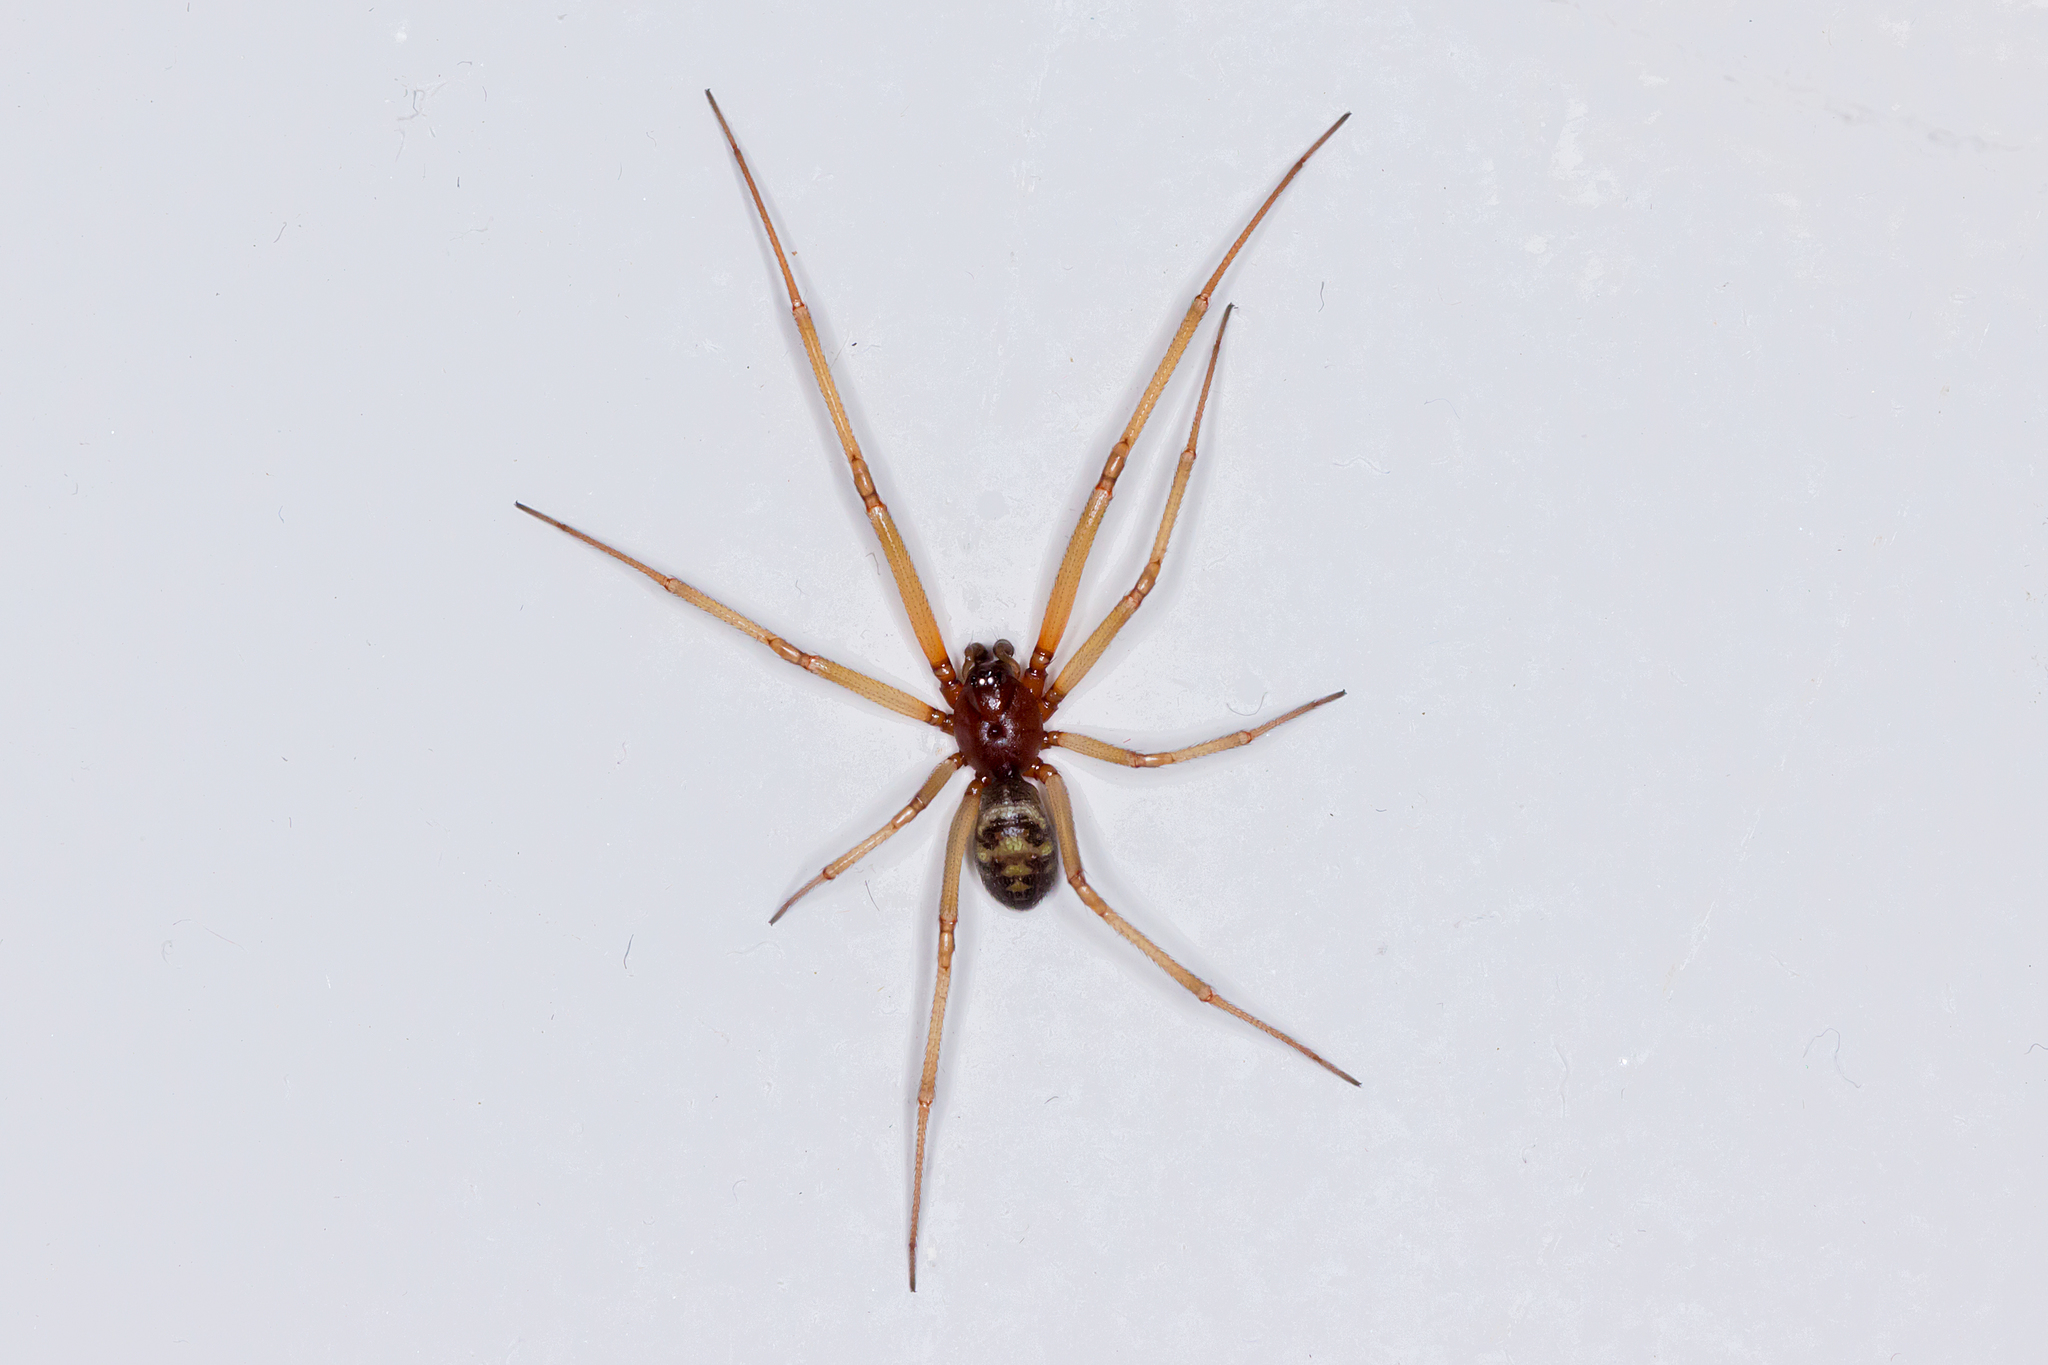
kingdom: Animalia
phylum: Arthropoda
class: Arachnida
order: Araneae
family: Theridiidae
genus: Steatoda
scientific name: Steatoda grossa
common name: False black widow
